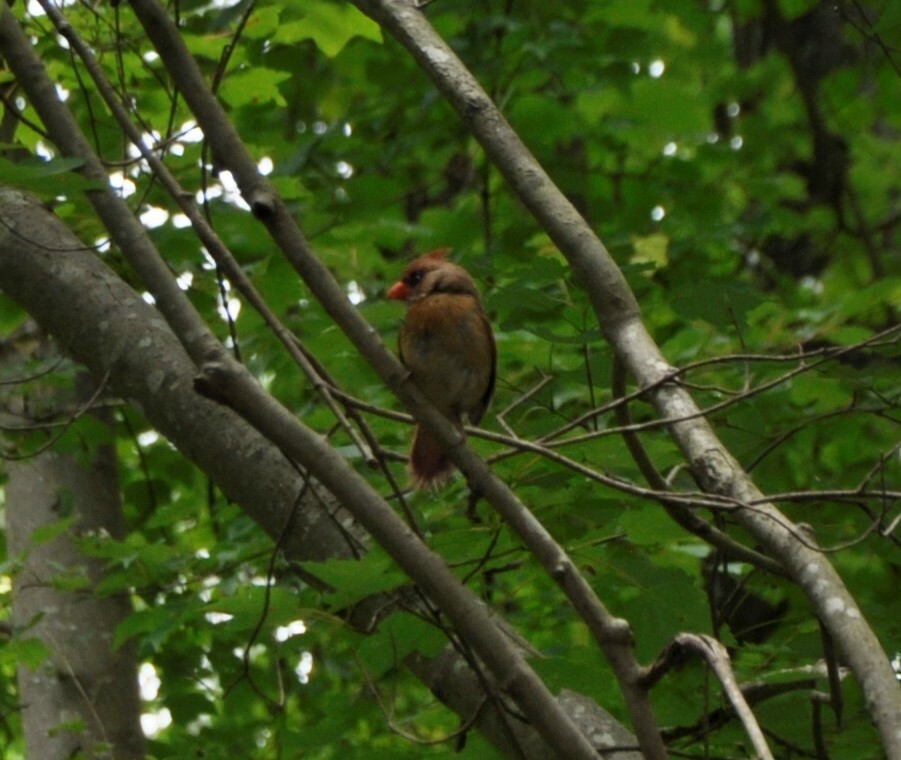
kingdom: Animalia
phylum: Chordata
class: Aves
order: Passeriformes
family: Cardinalidae
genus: Cardinalis
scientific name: Cardinalis cardinalis
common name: Northern cardinal
